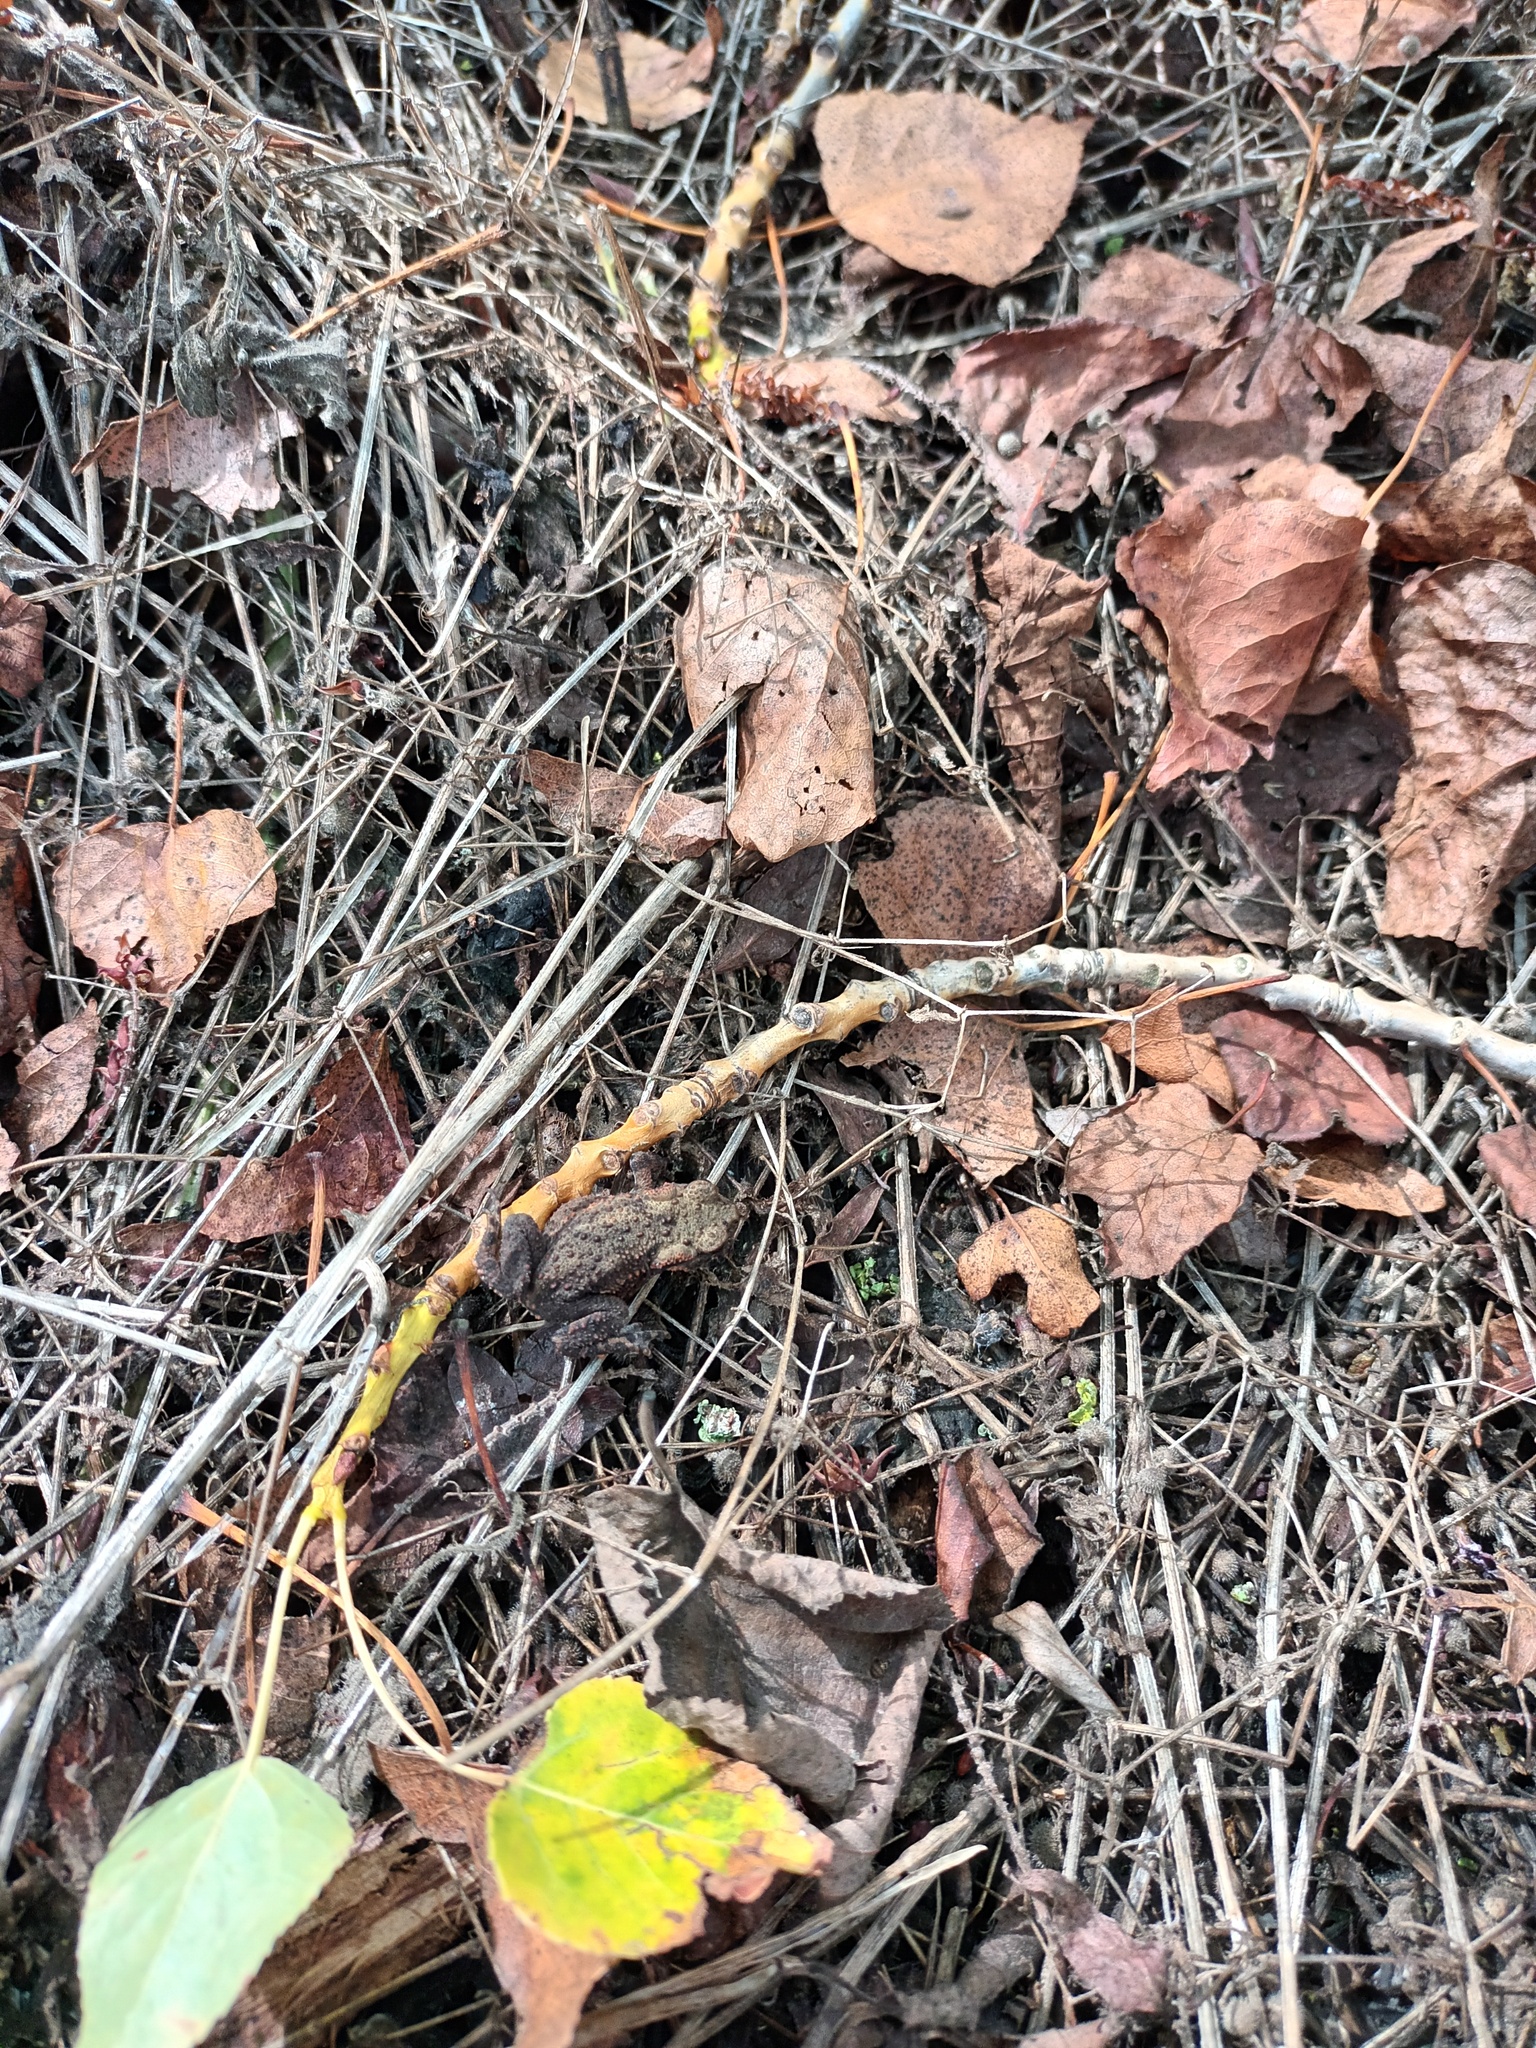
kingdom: Animalia
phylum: Chordata
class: Amphibia
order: Anura
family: Bufonidae
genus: Bufo
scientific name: Bufo bufo
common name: Common toad
